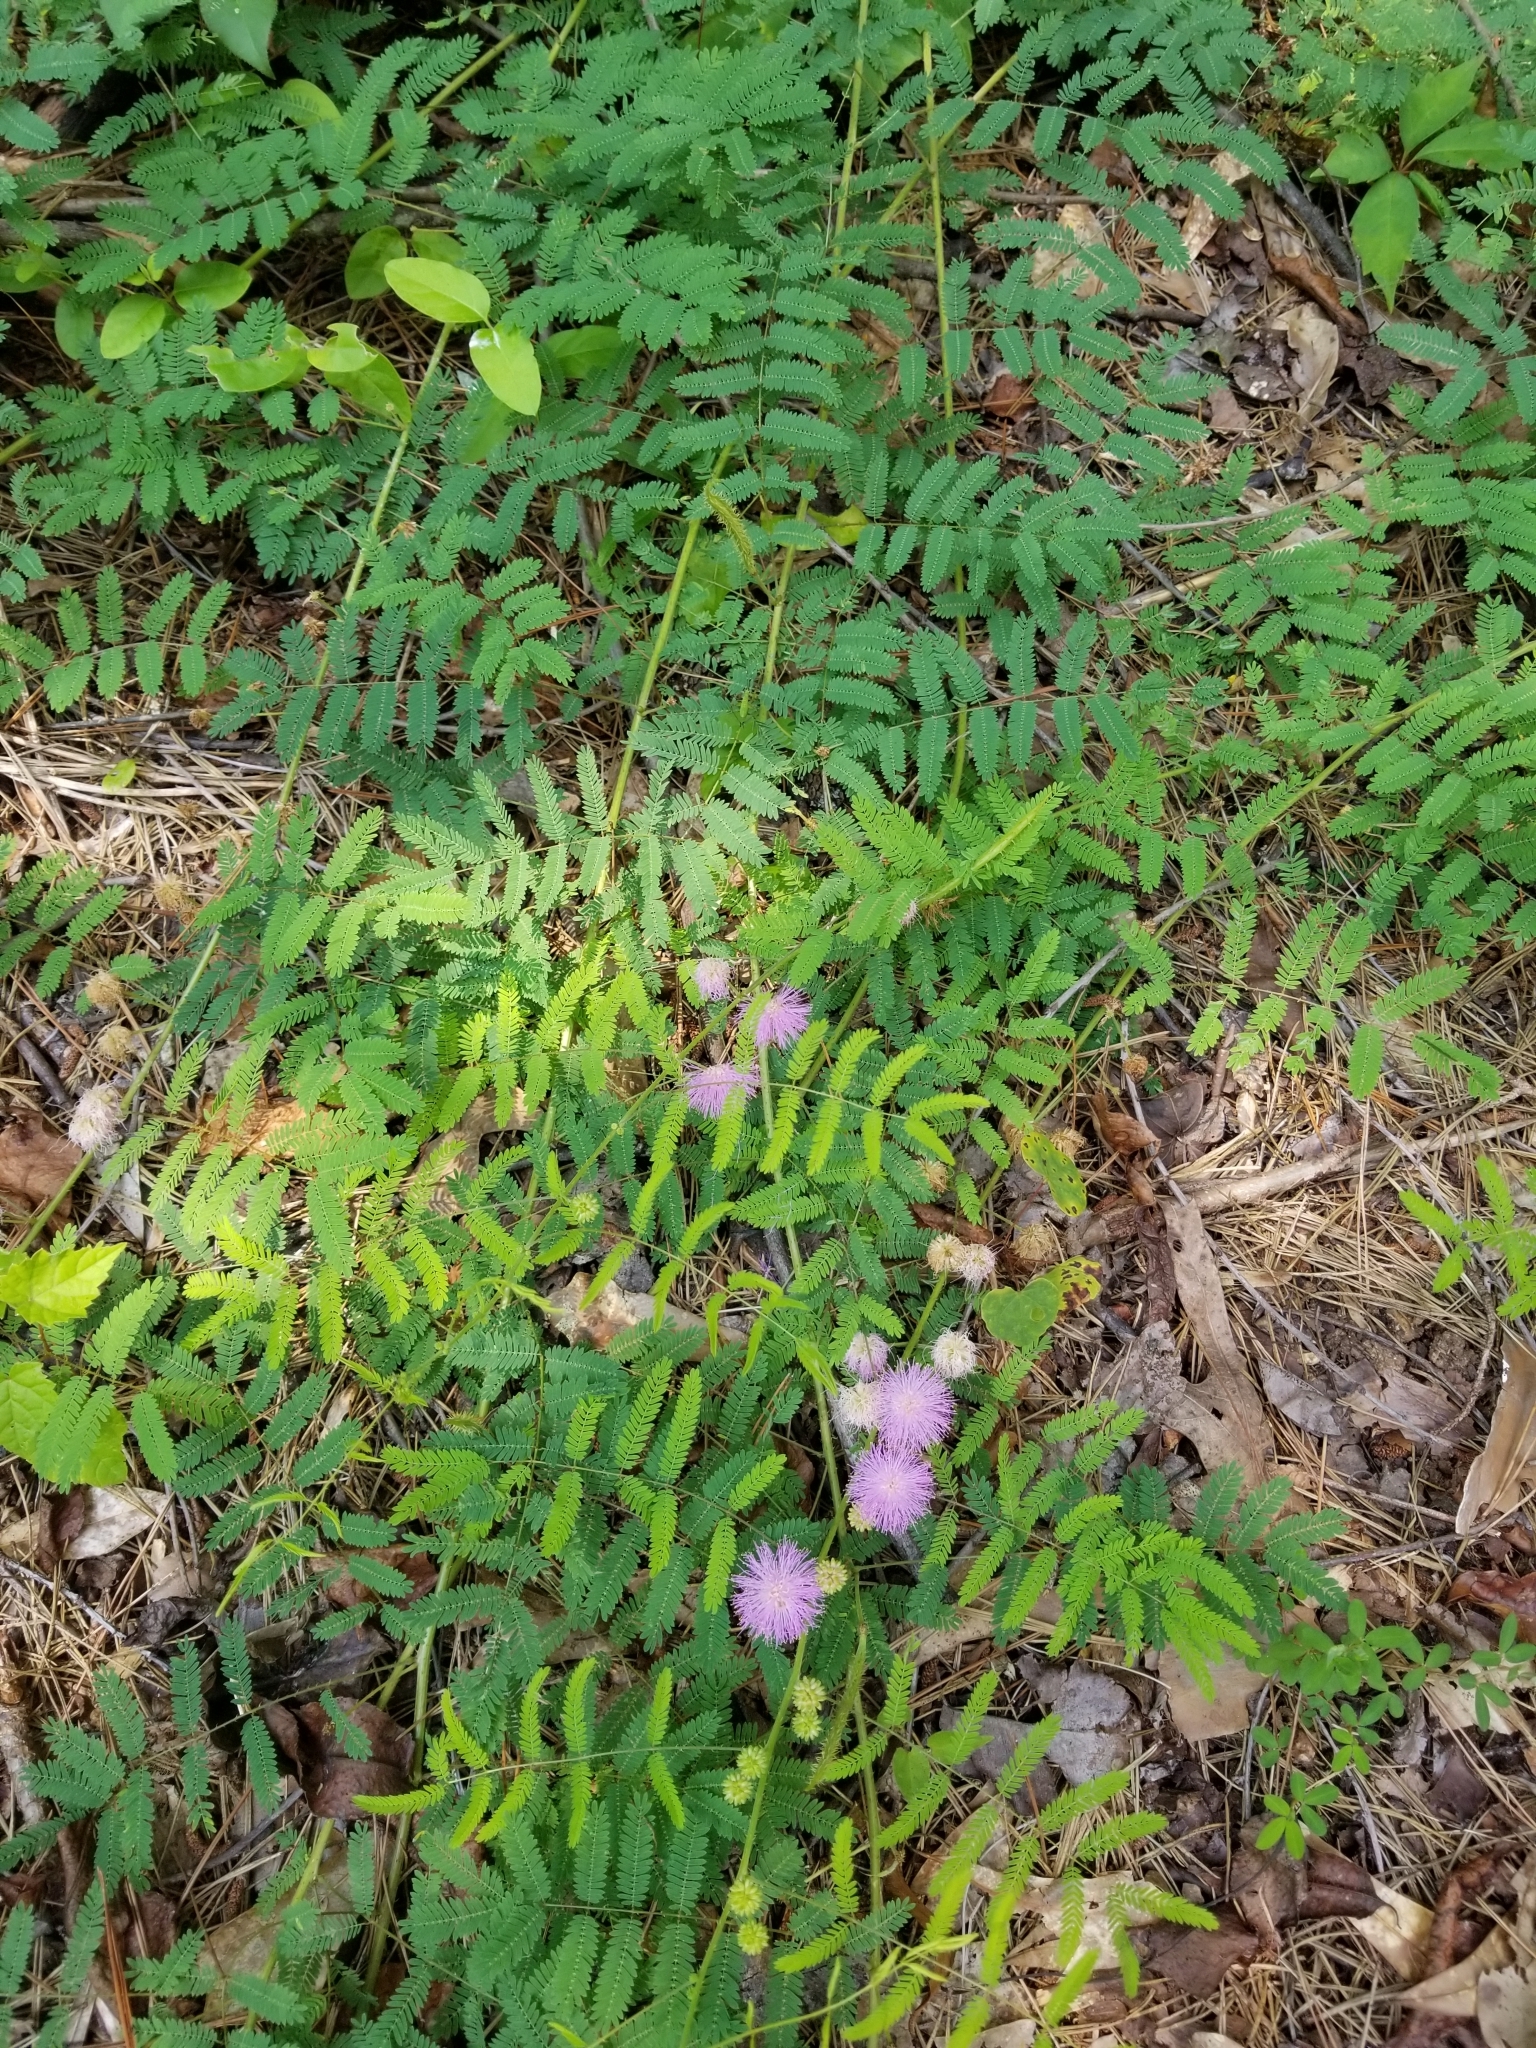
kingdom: Plantae
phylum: Tracheophyta
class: Magnoliopsida
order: Fabales
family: Fabaceae
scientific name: Fabaceae
